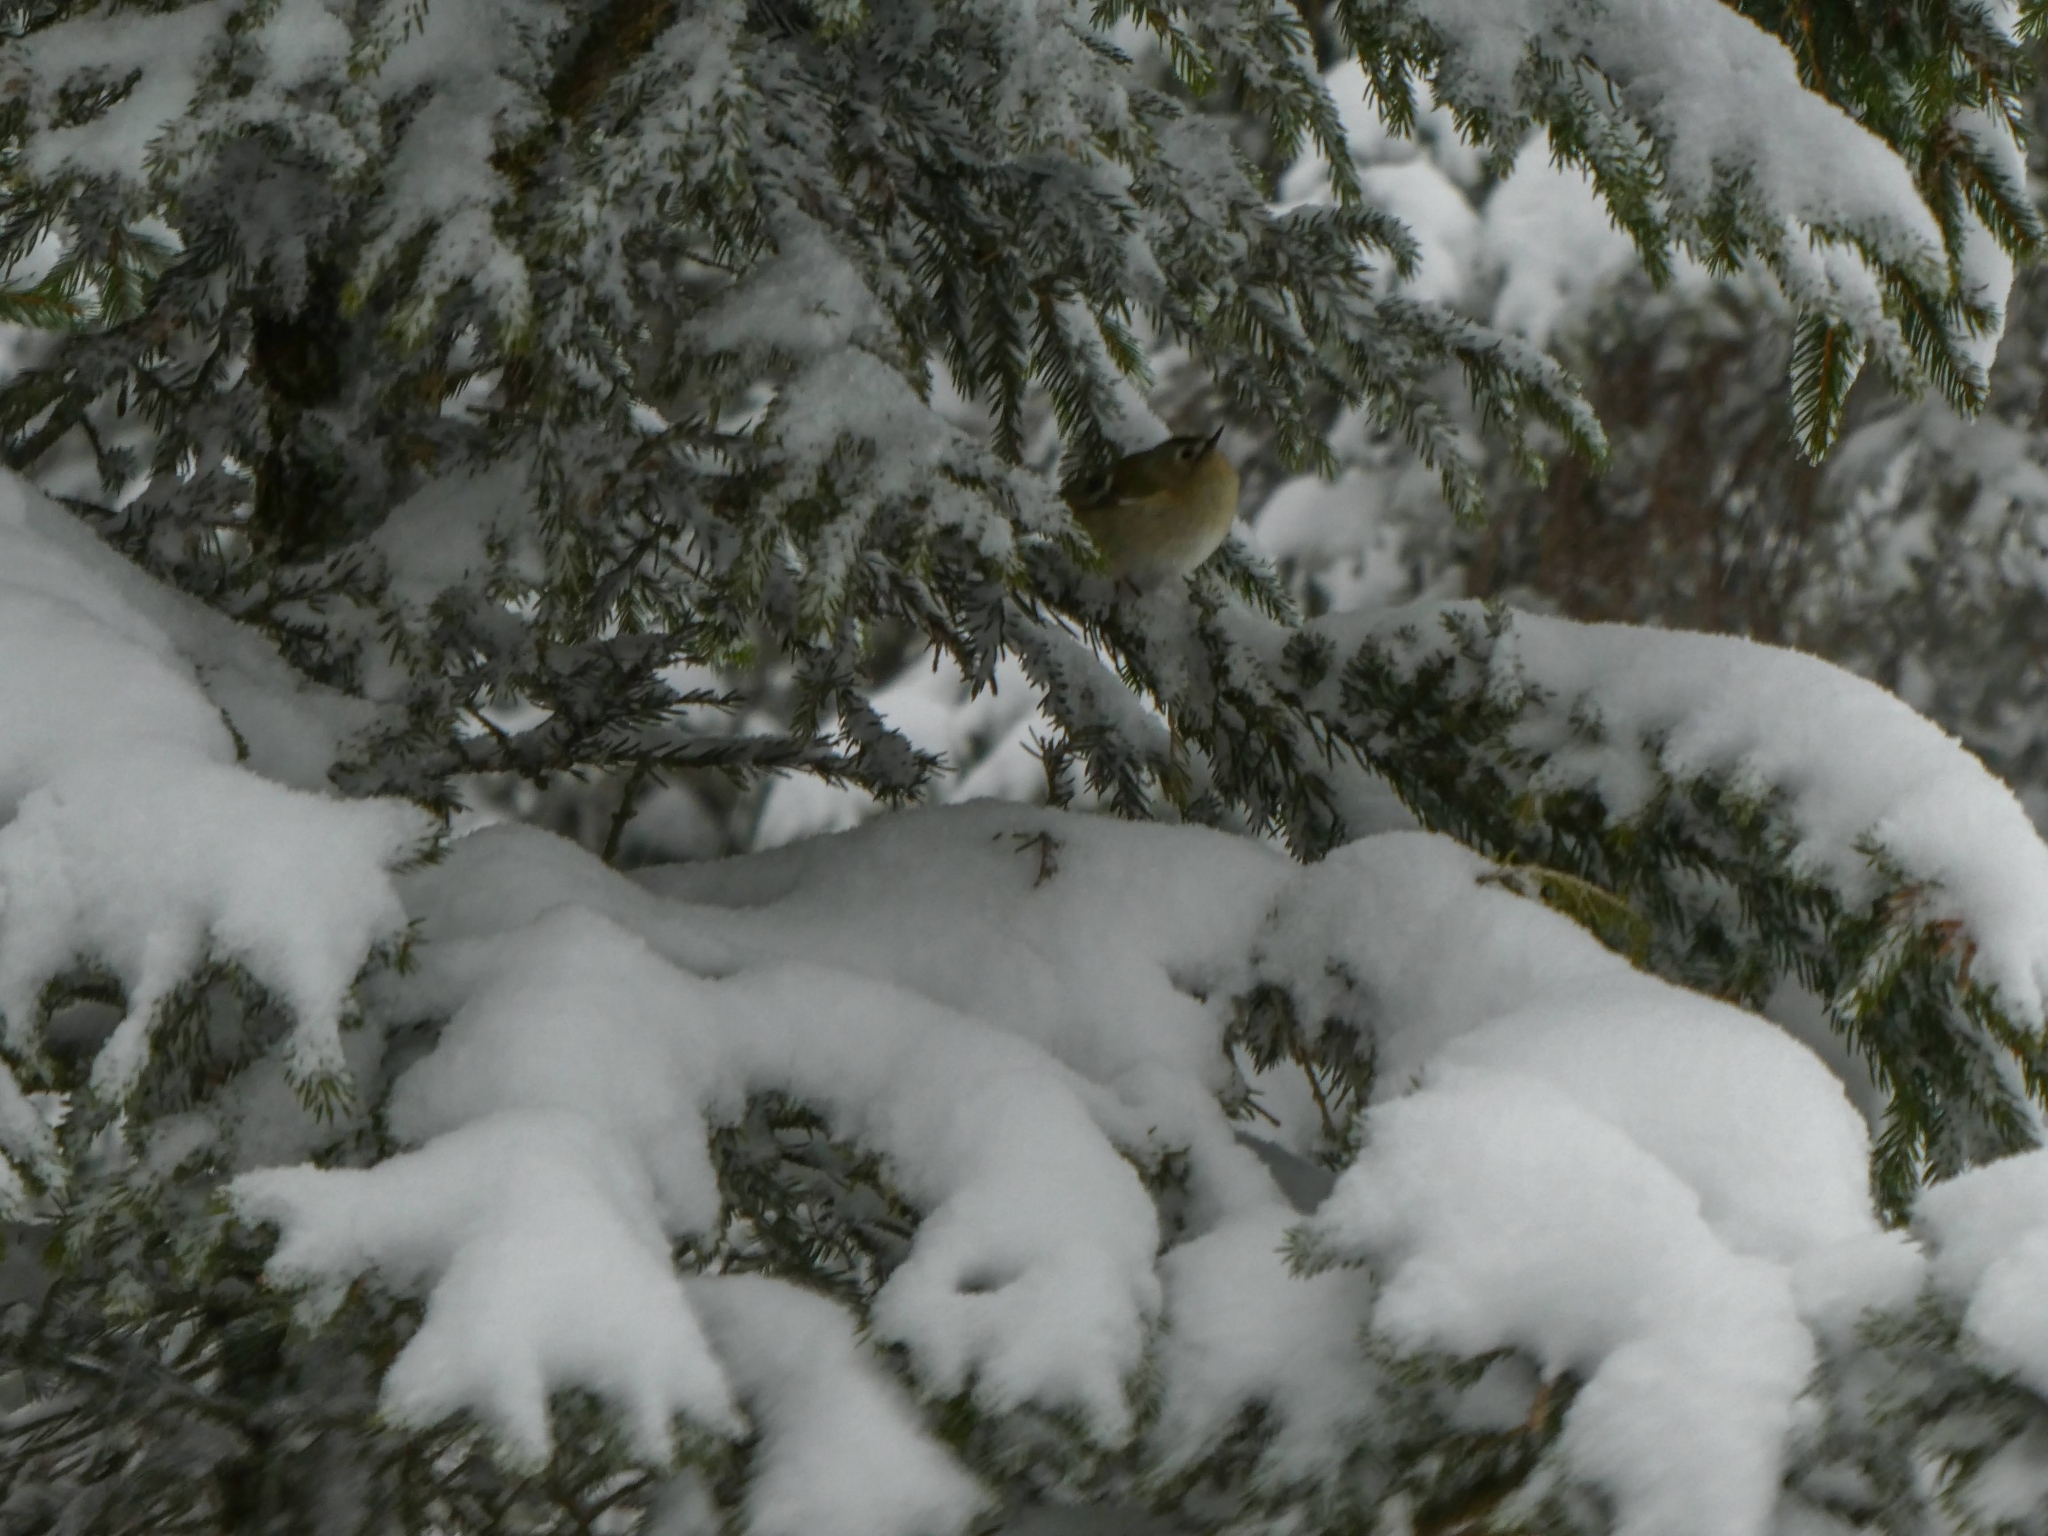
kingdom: Animalia
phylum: Chordata
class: Aves
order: Passeriformes
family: Regulidae
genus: Regulus
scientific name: Regulus regulus
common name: Goldcrest
